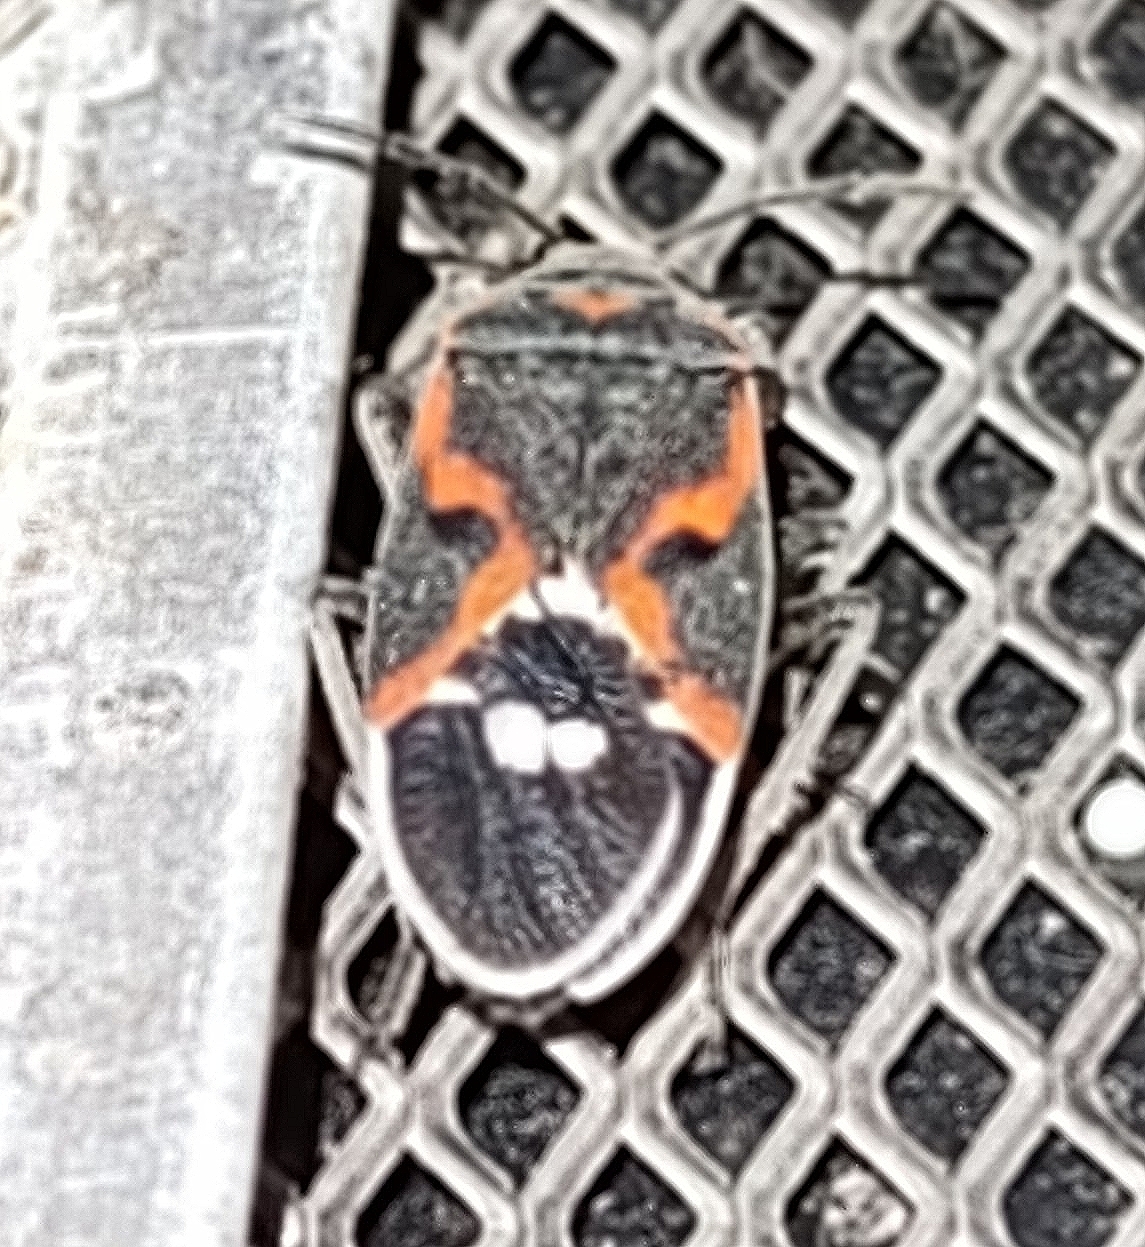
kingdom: Animalia
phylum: Arthropoda
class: Insecta
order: Hemiptera
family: Lygaeidae
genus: Lygaeus
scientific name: Lygaeus kalmii
